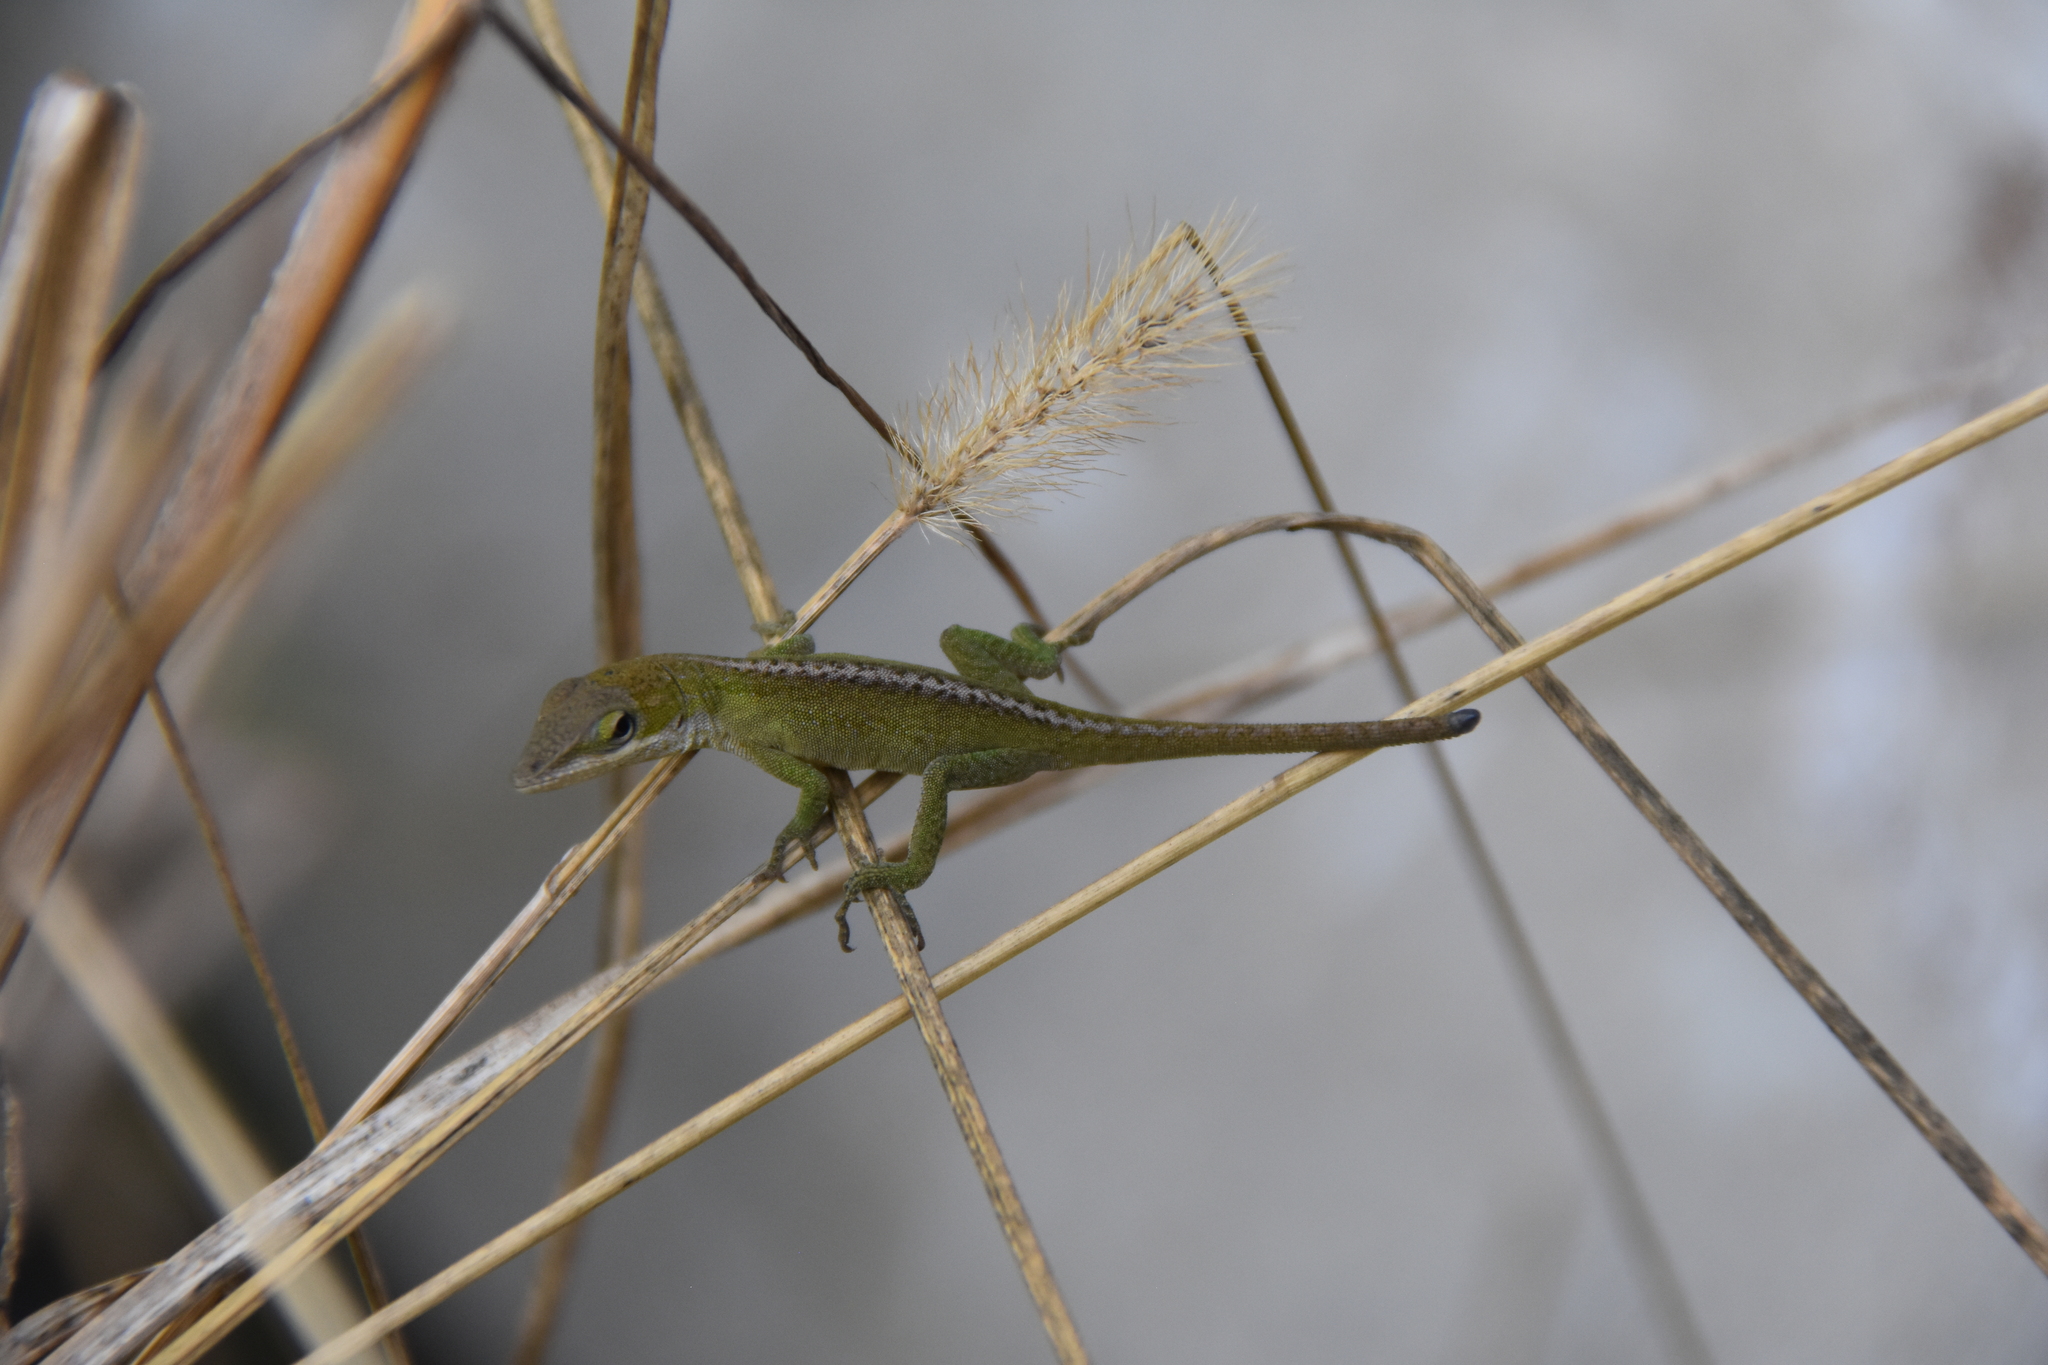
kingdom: Animalia
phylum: Chordata
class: Squamata
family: Dactyloidae
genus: Anolis
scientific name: Anolis carolinensis
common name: Green anole
